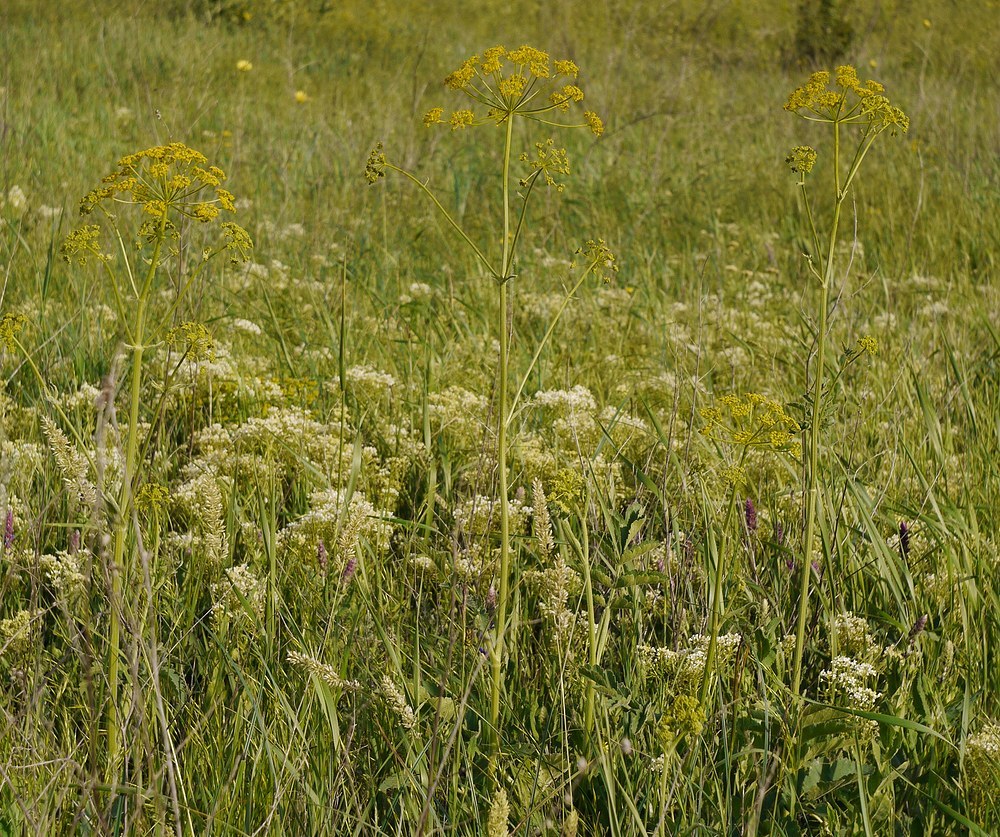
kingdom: Plantae
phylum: Tracheophyta
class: Magnoliopsida
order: Apiales
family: Apiaceae
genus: Pastinaca
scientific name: Pastinaca clausii
